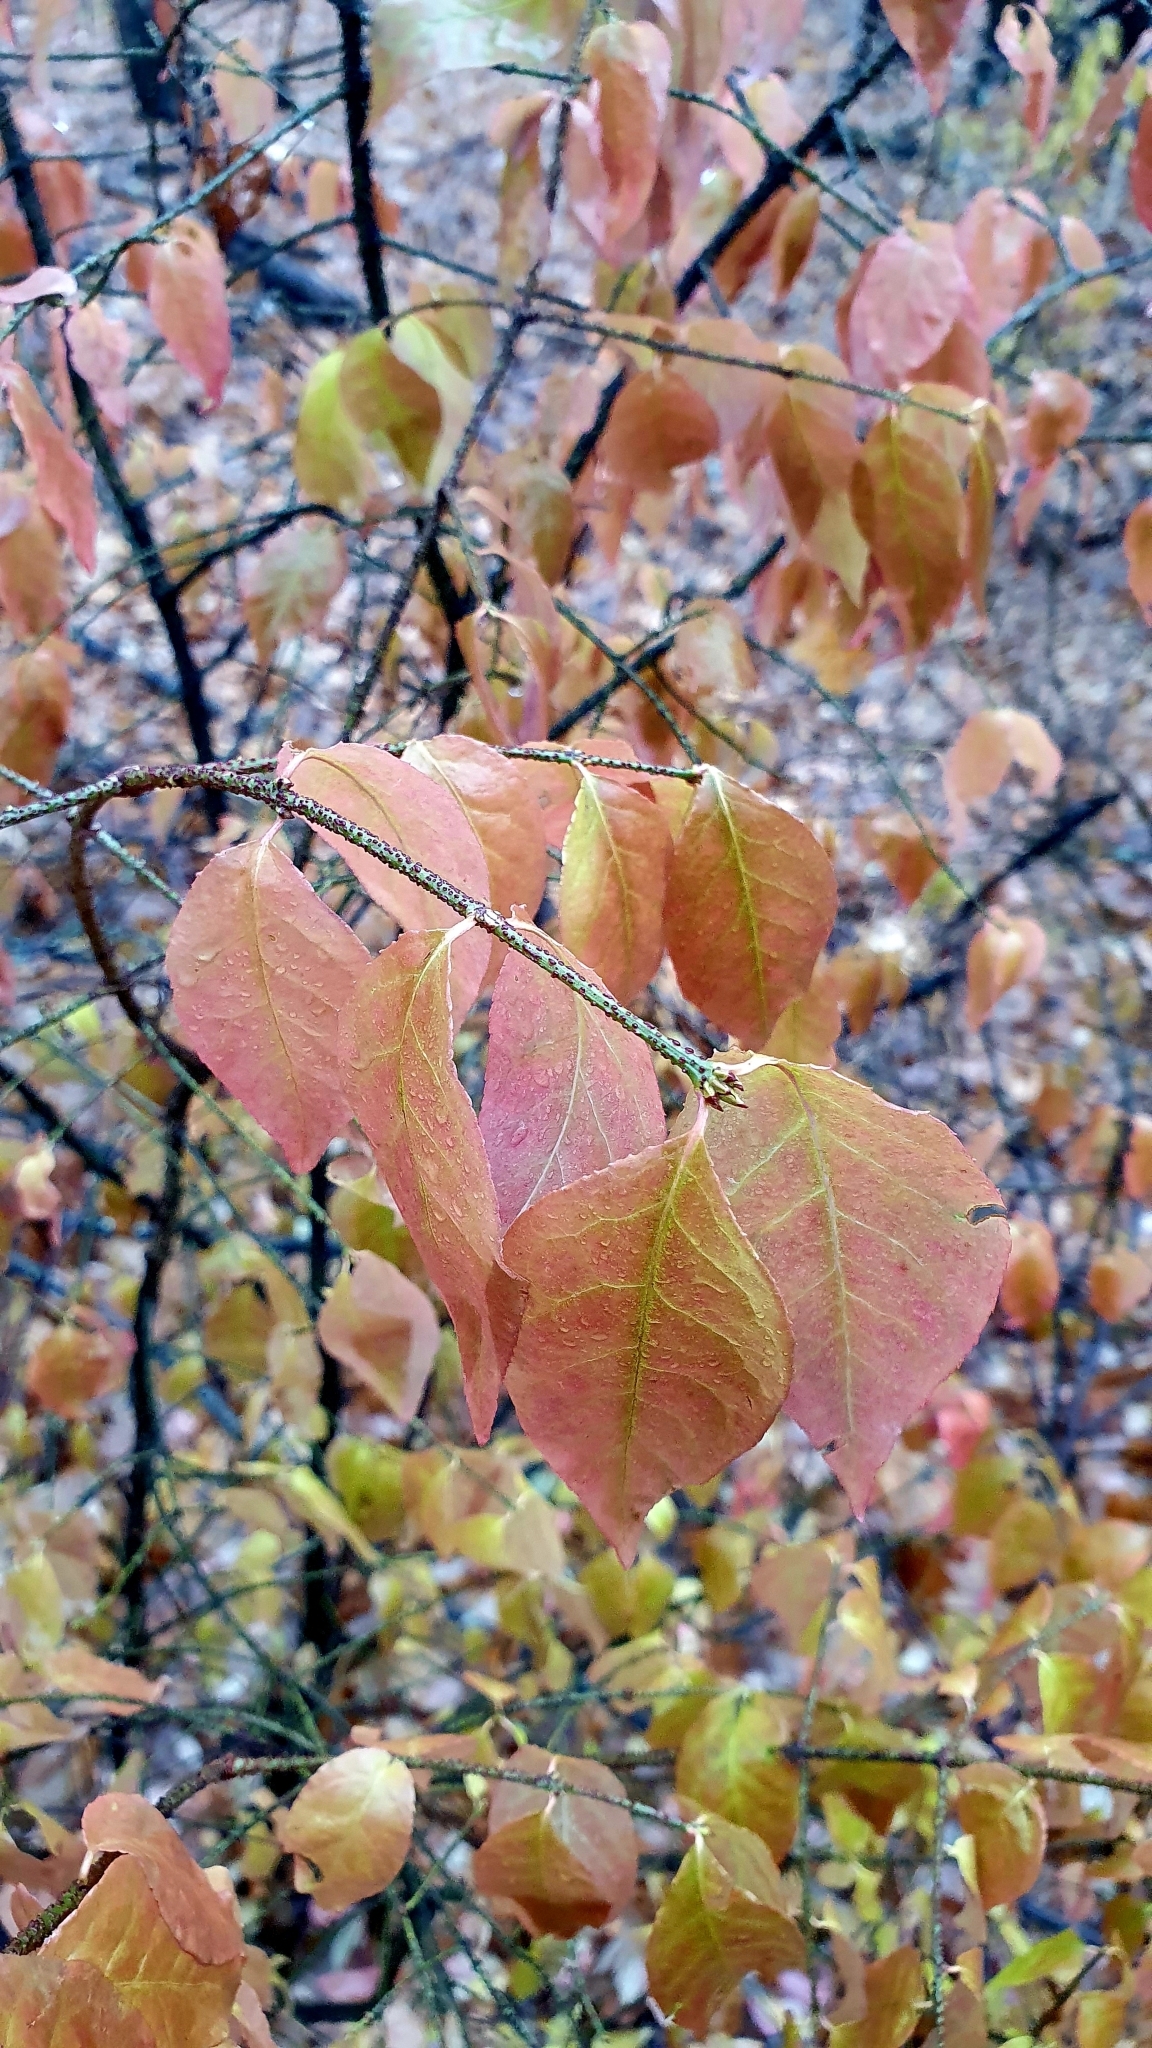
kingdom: Plantae
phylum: Tracheophyta
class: Magnoliopsida
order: Celastrales
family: Celastraceae
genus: Euonymus
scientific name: Euonymus verrucosus
